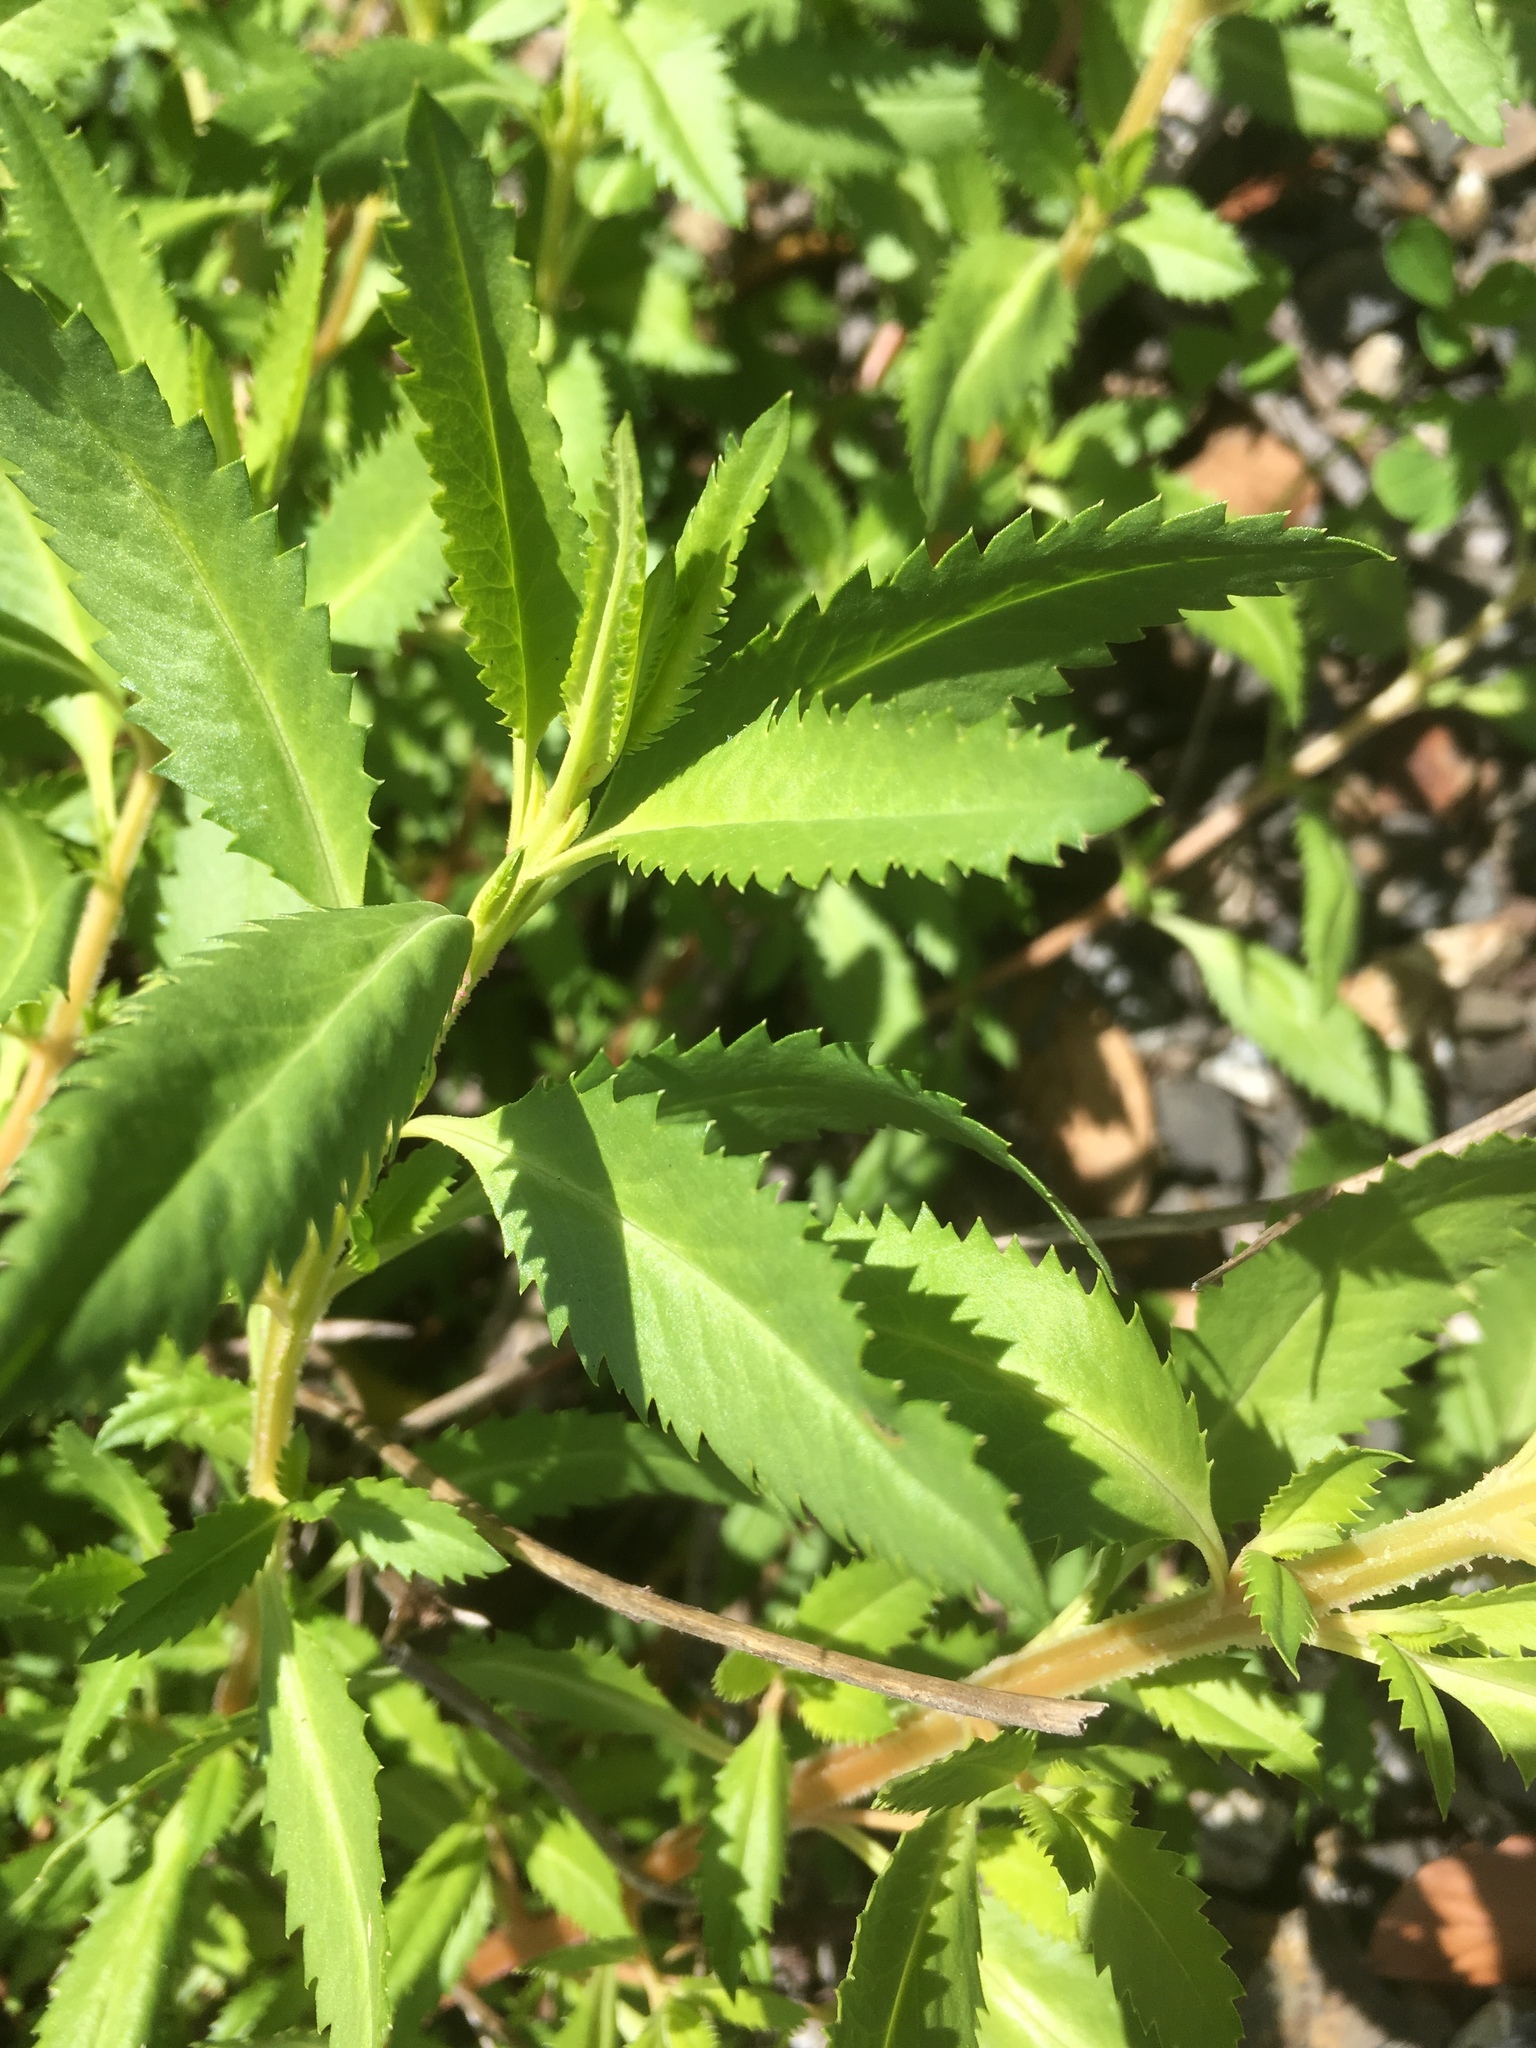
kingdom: Plantae
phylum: Tracheophyta
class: Magnoliopsida
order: Saxifragales
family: Haloragaceae
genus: Haloragis
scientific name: Haloragis erecta
